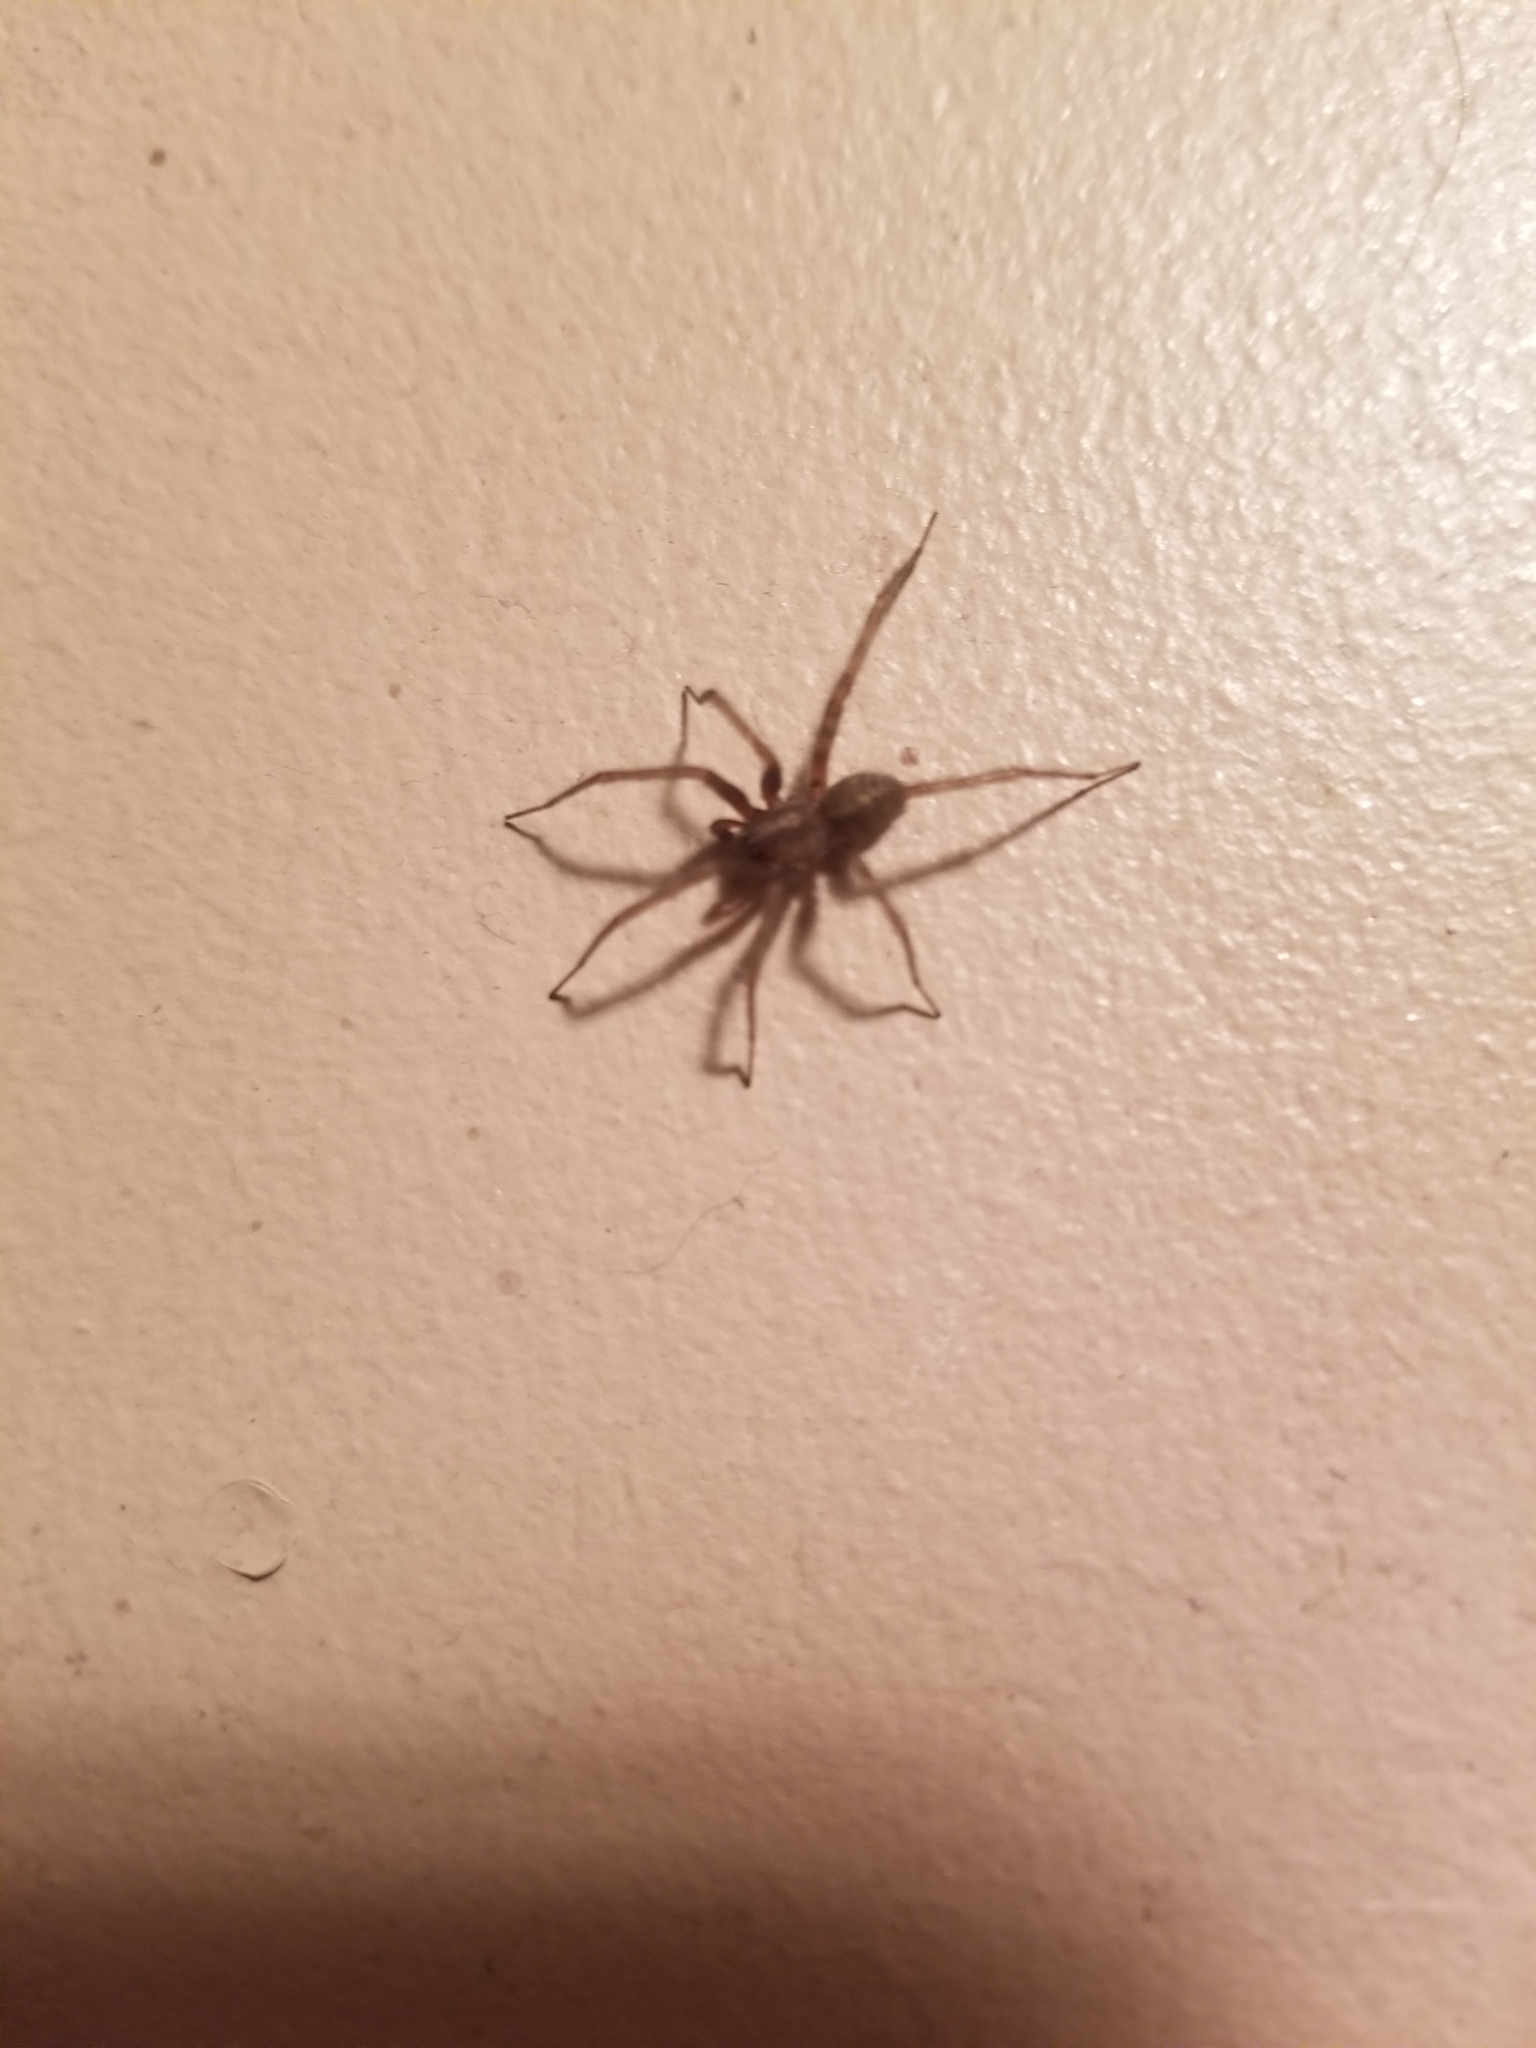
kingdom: Animalia
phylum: Arthropoda
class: Arachnida
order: Araneae
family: Agelenidae
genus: Tegenaria
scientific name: Tegenaria domestica
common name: Barn funnel weaver
